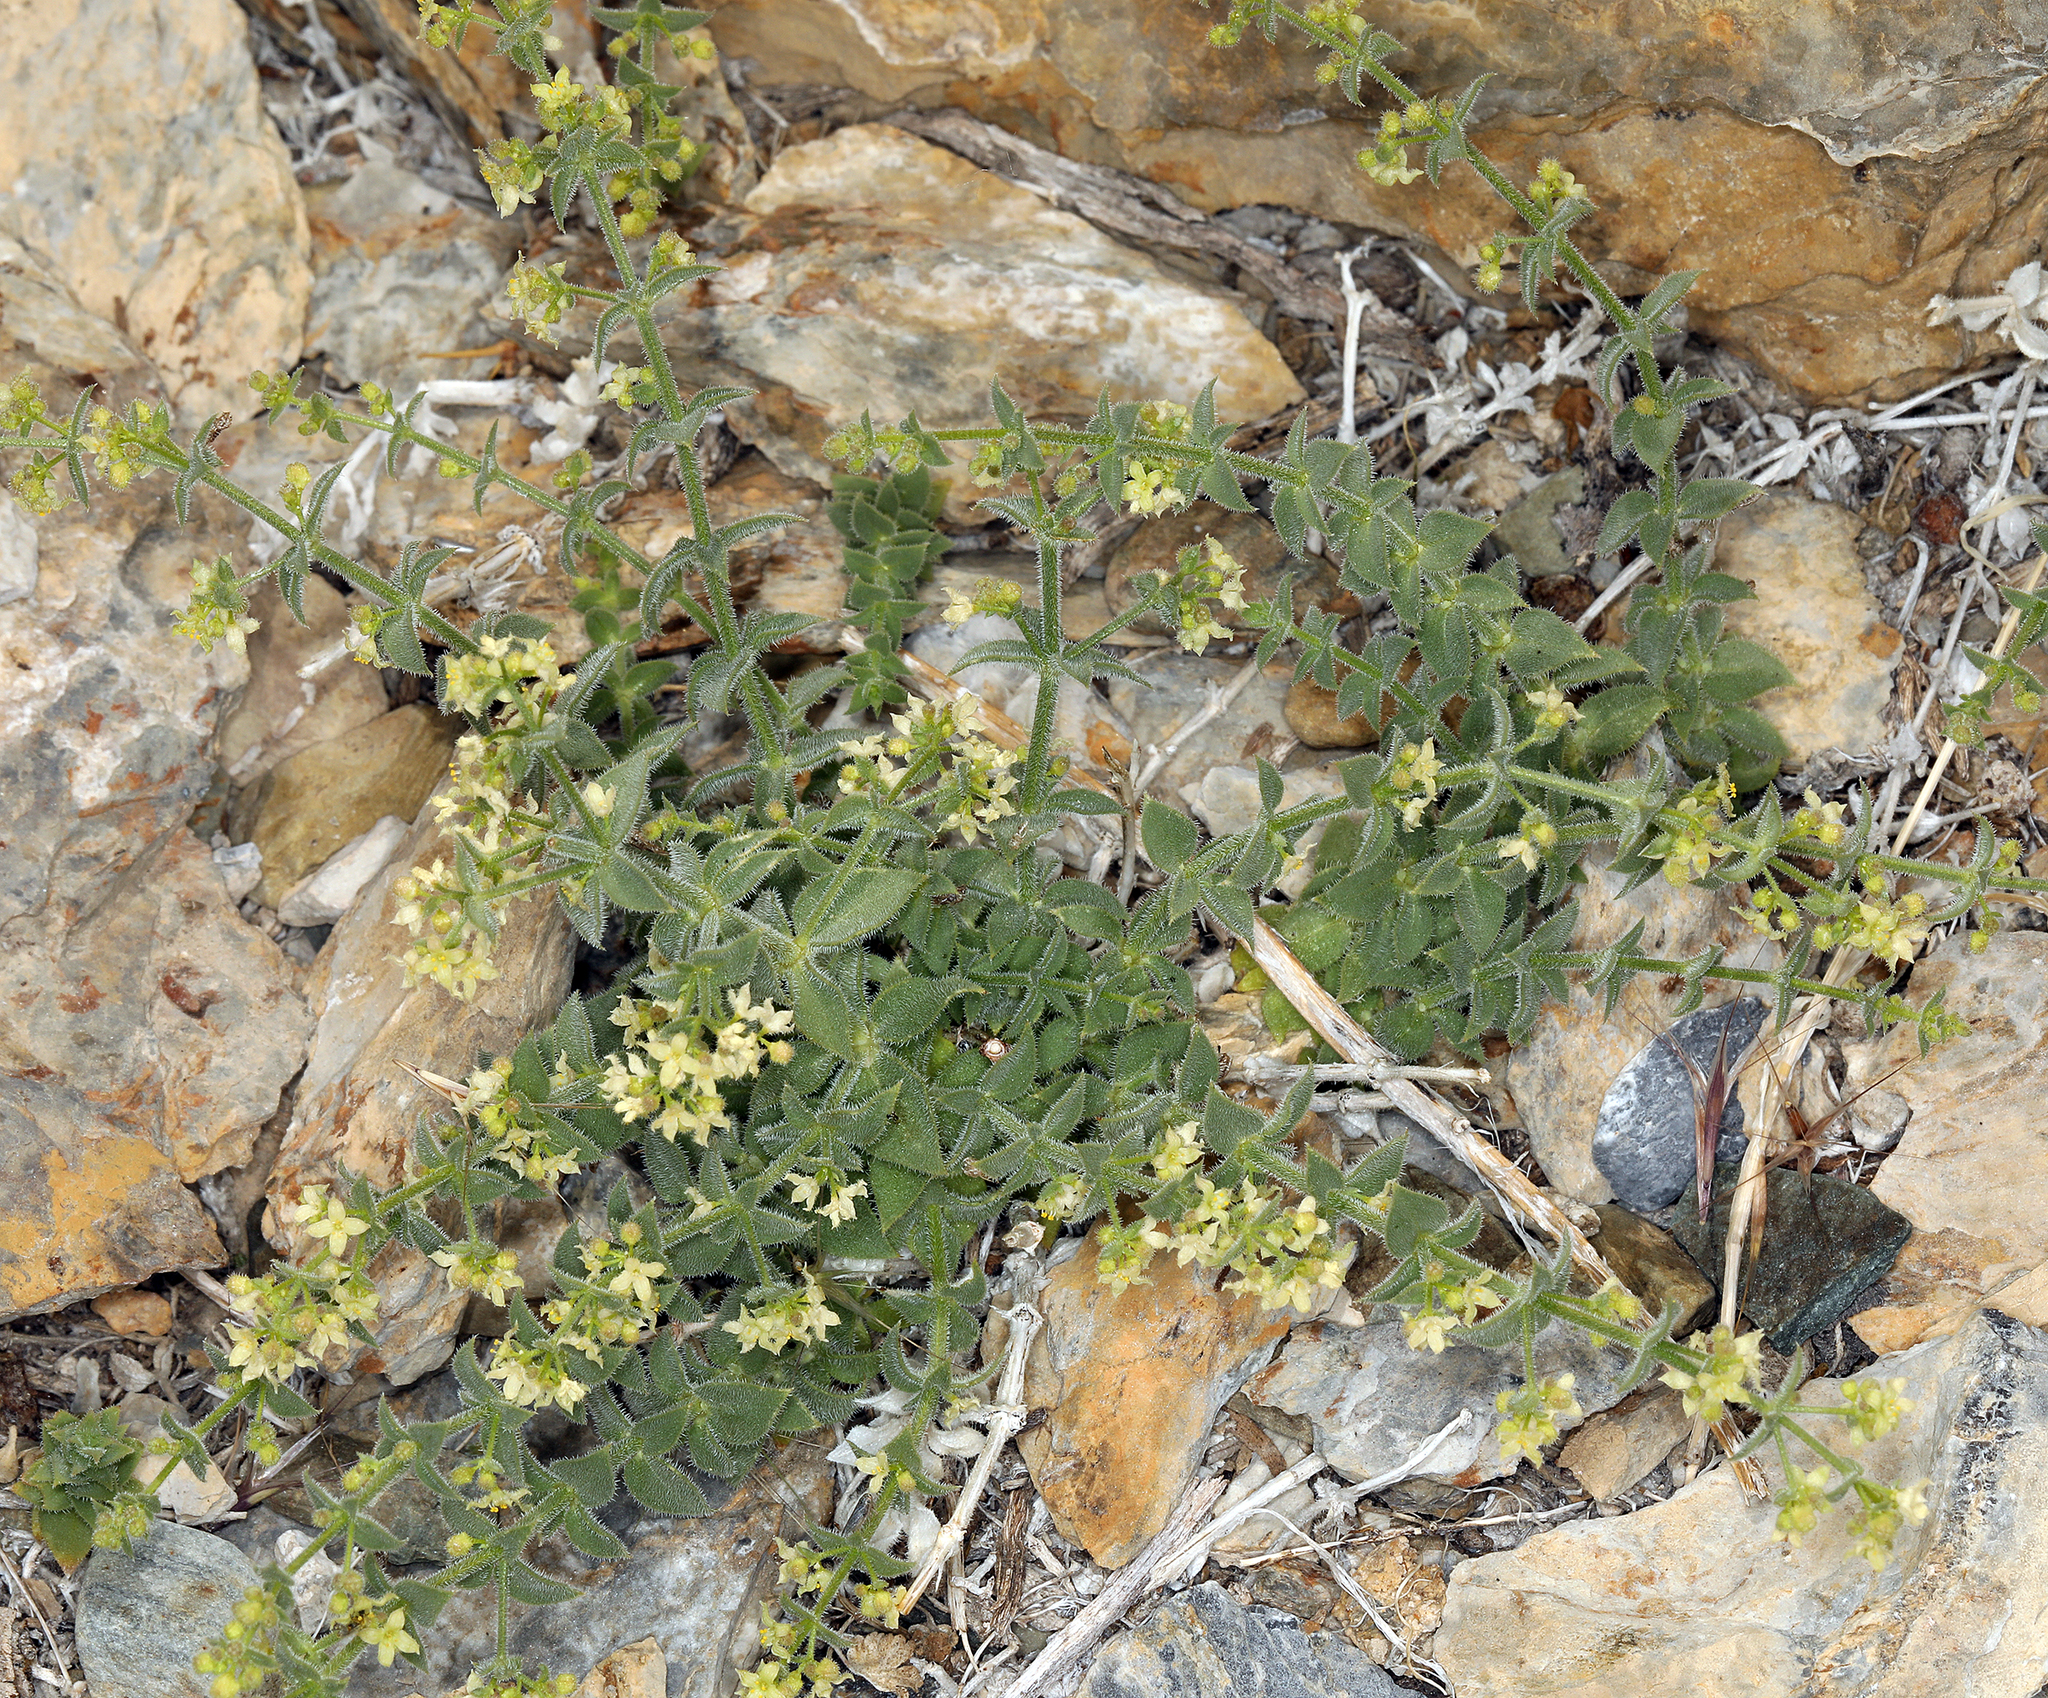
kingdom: Plantae
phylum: Tracheophyta
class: Magnoliopsida
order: Gentianales
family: Rubiaceae
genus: Galium
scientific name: Galium multiflorum
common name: Many-flowered bedstraw
